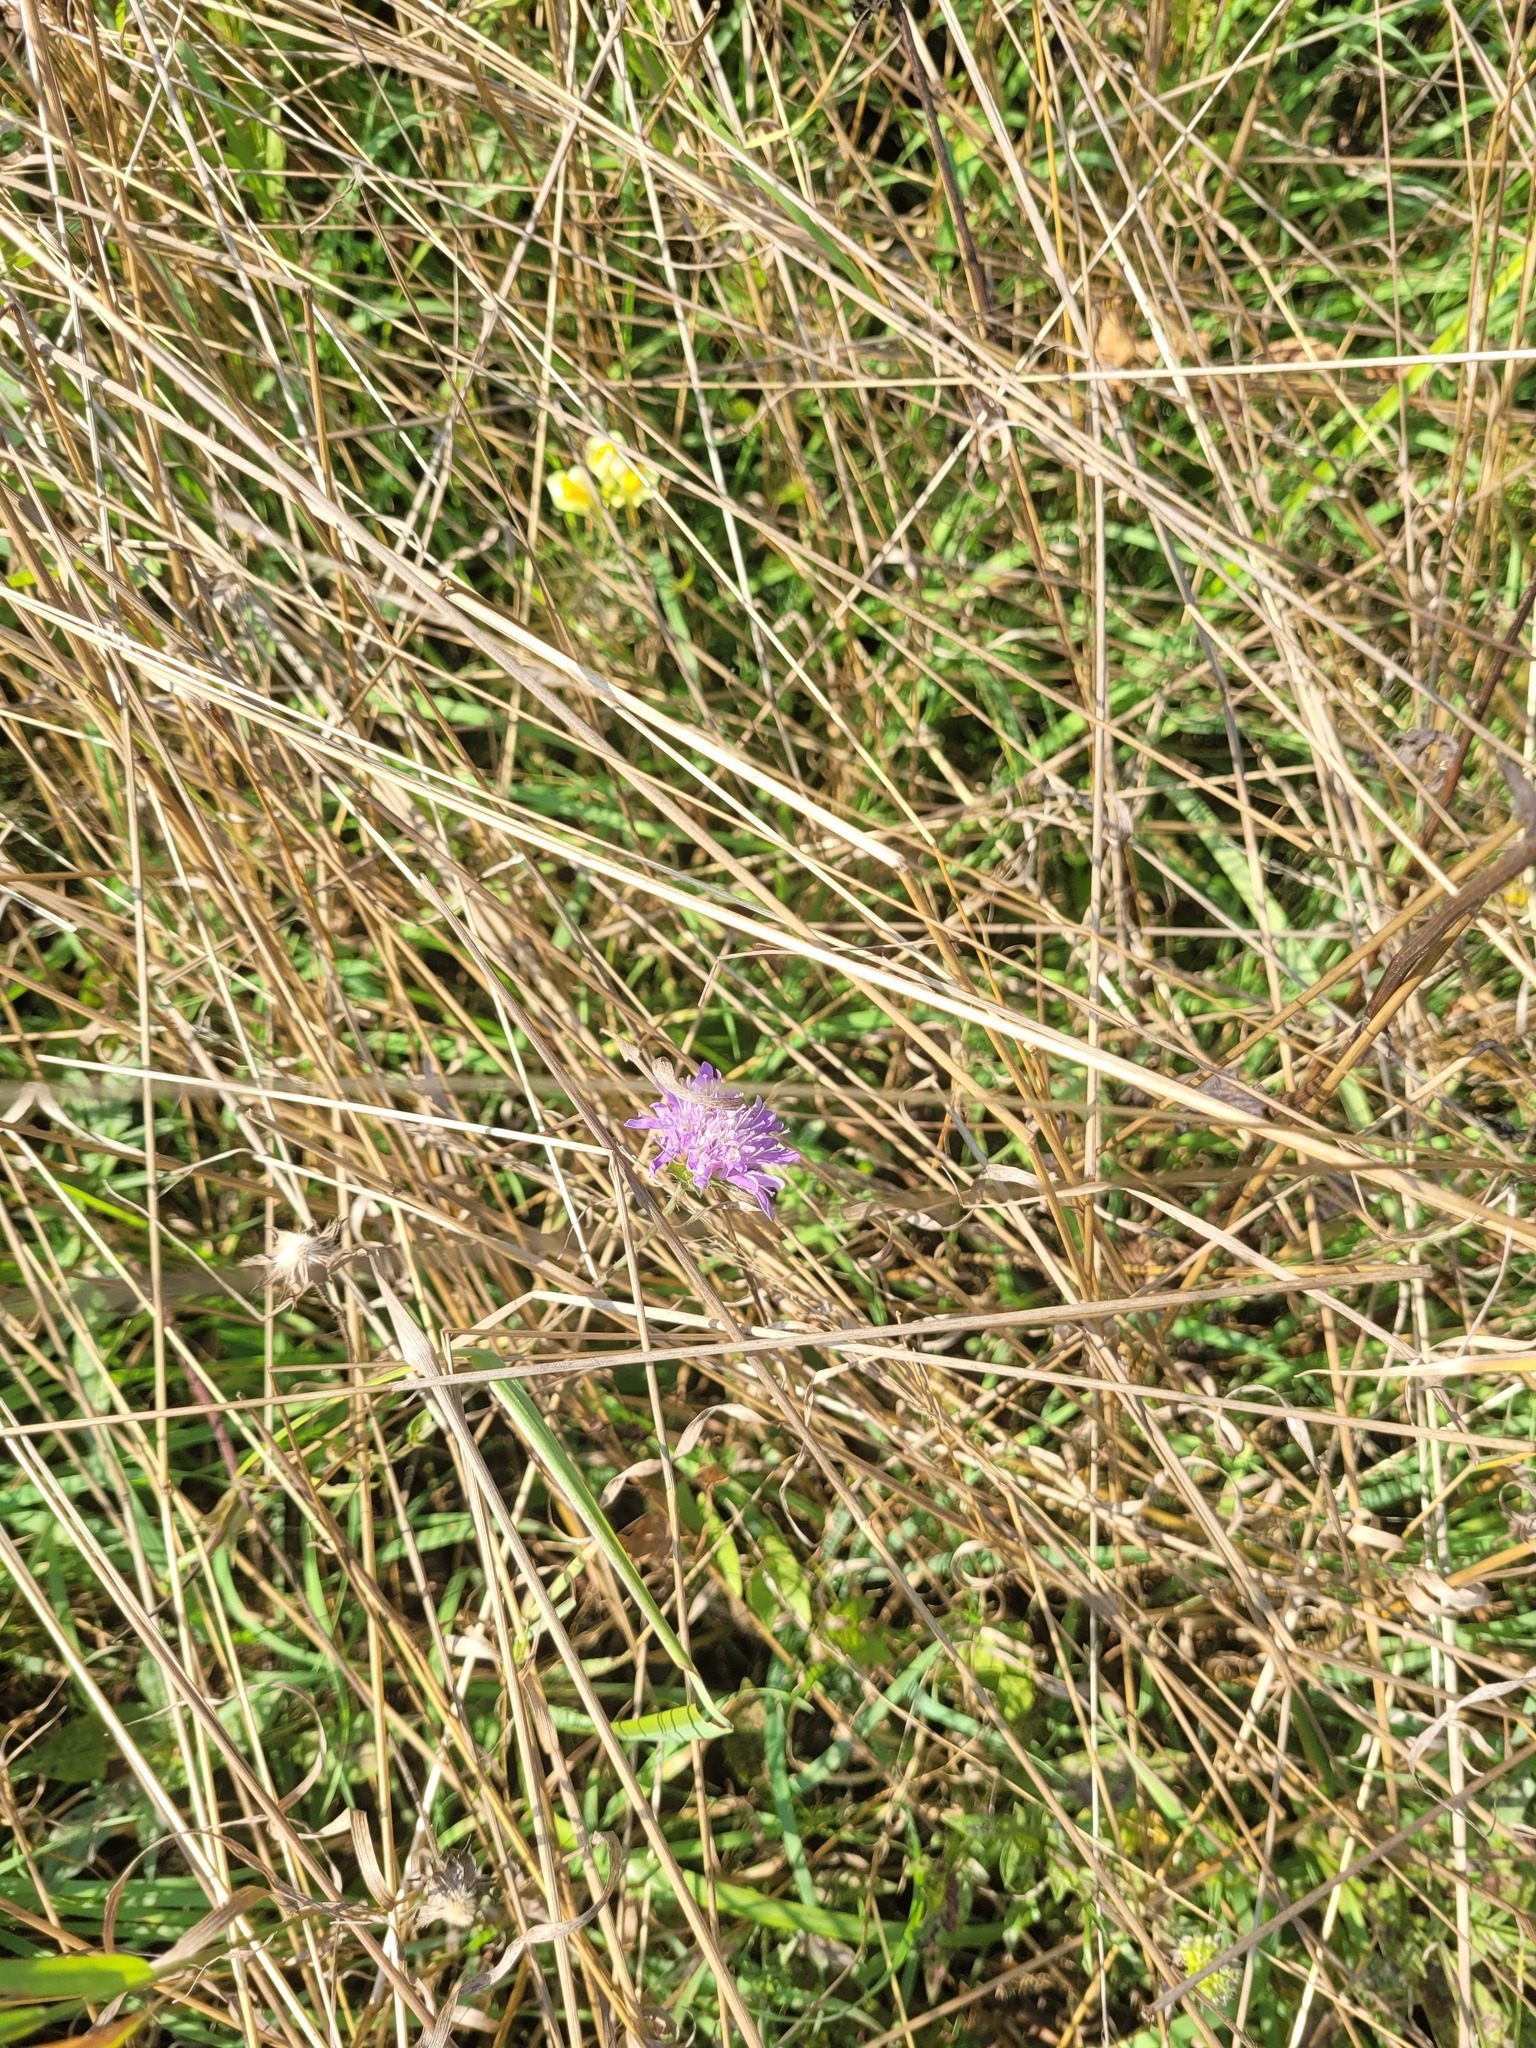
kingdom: Plantae
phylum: Tracheophyta
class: Magnoliopsida
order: Dipsacales
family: Caprifoliaceae
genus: Knautia
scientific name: Knautia arvensis
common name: Field scabiosa
